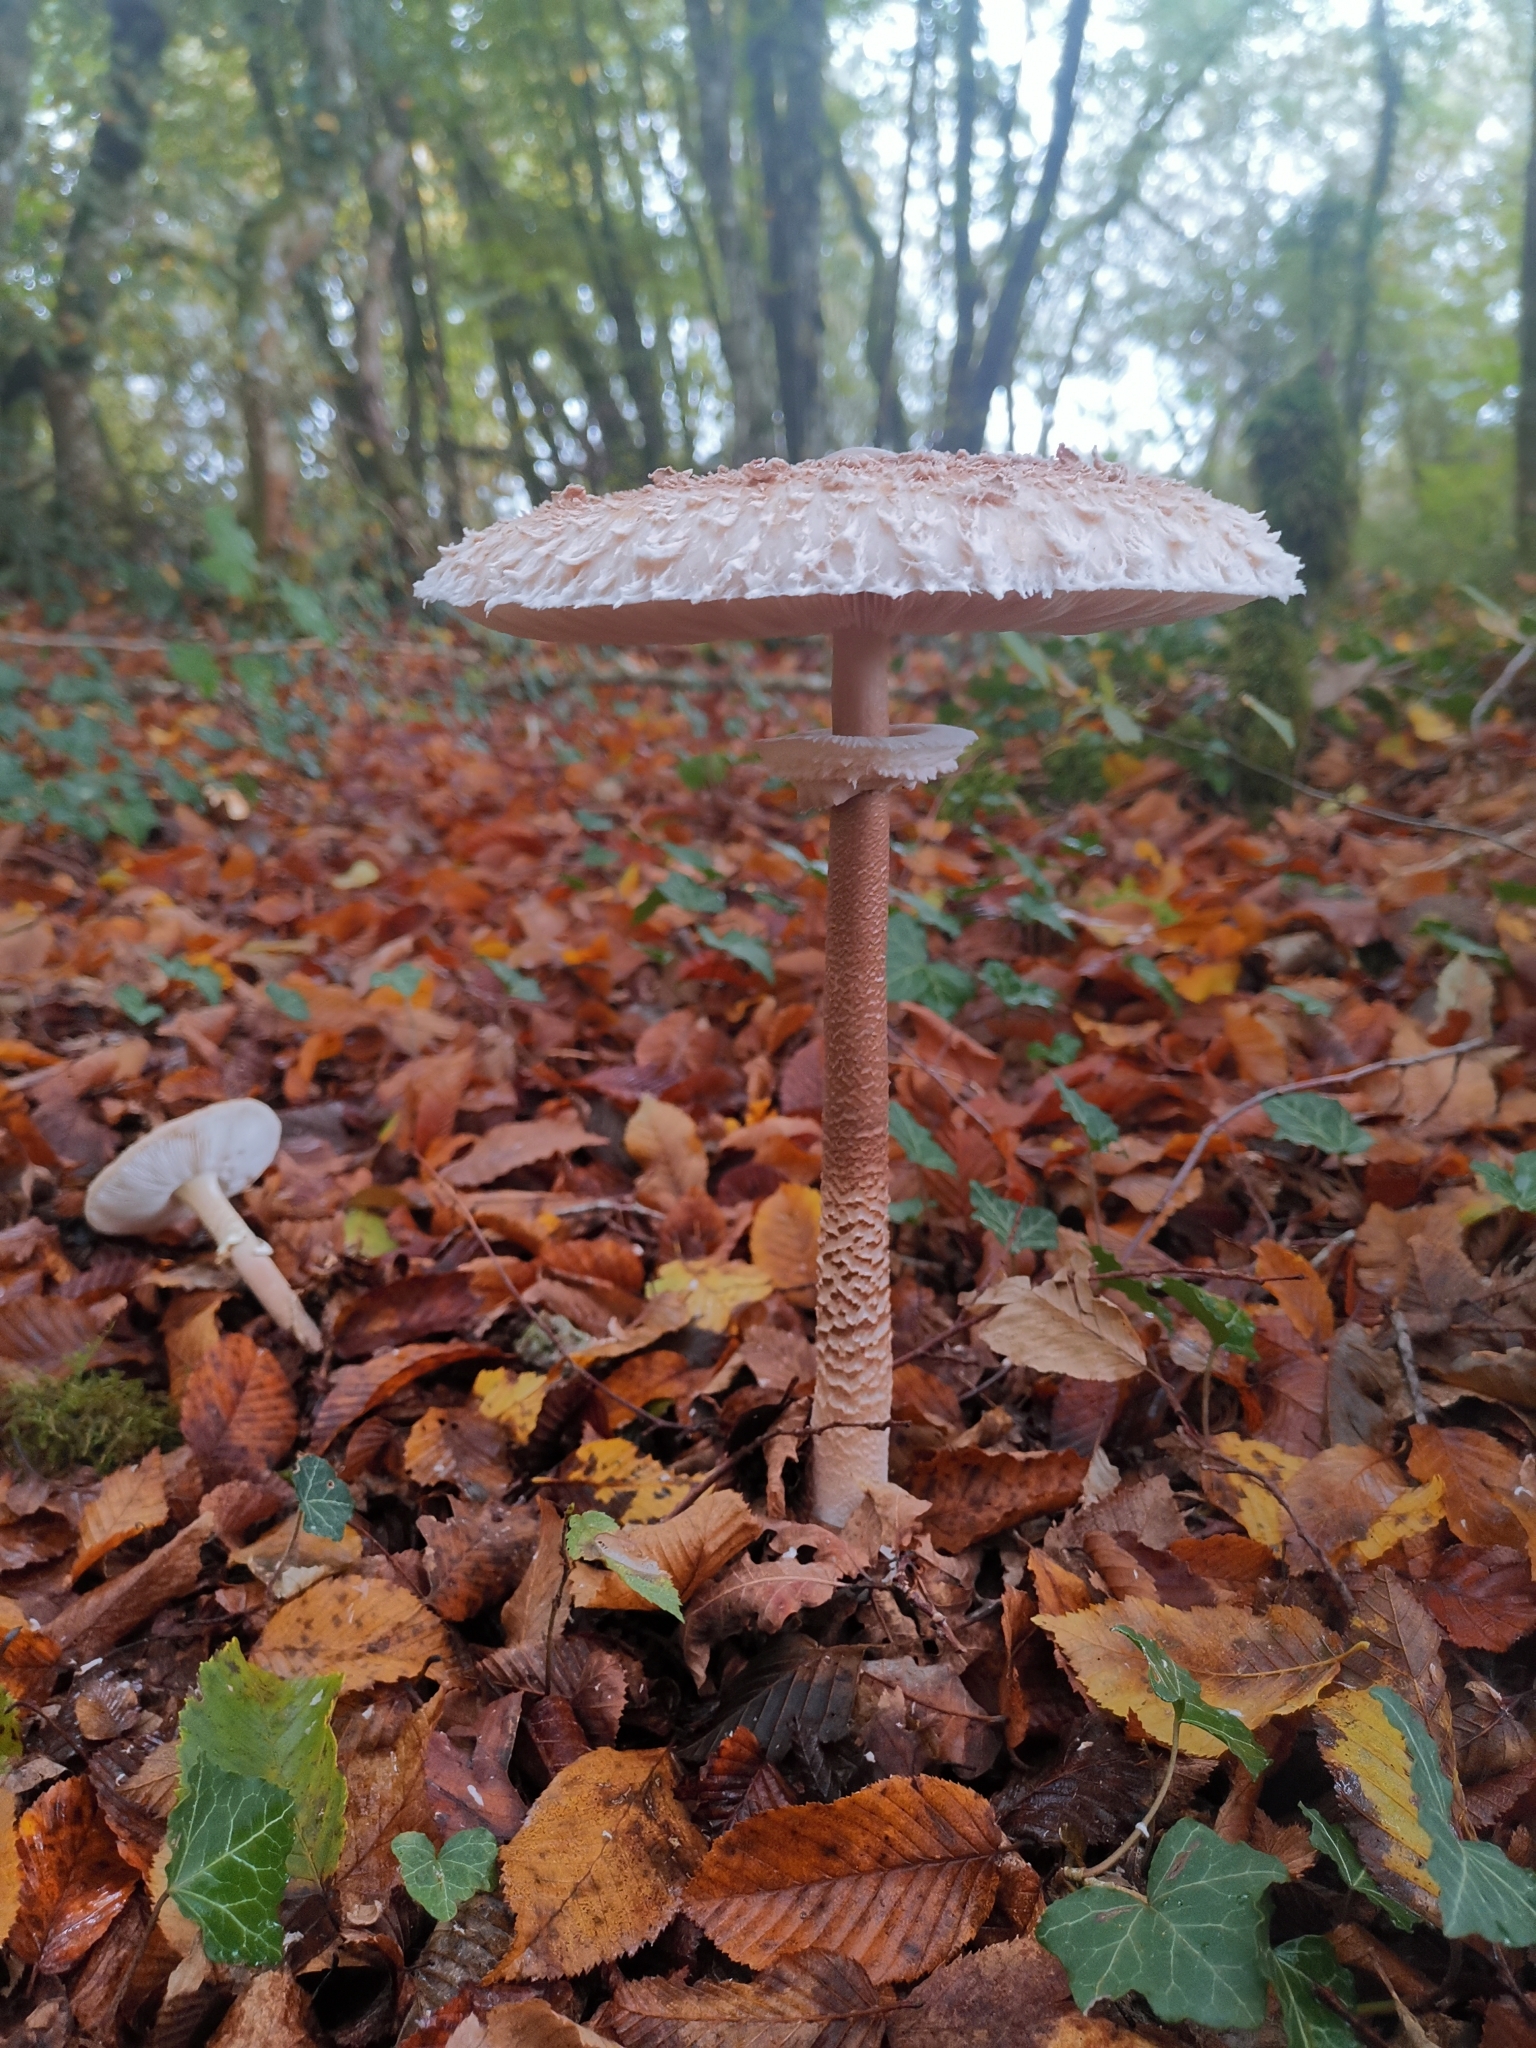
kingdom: Fungi
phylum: Basidiomycota
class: Agaricomycetes
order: Agaricales
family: Agaricaceae
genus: Macrolepiota
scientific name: Macrolepiota procera
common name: Parasol
